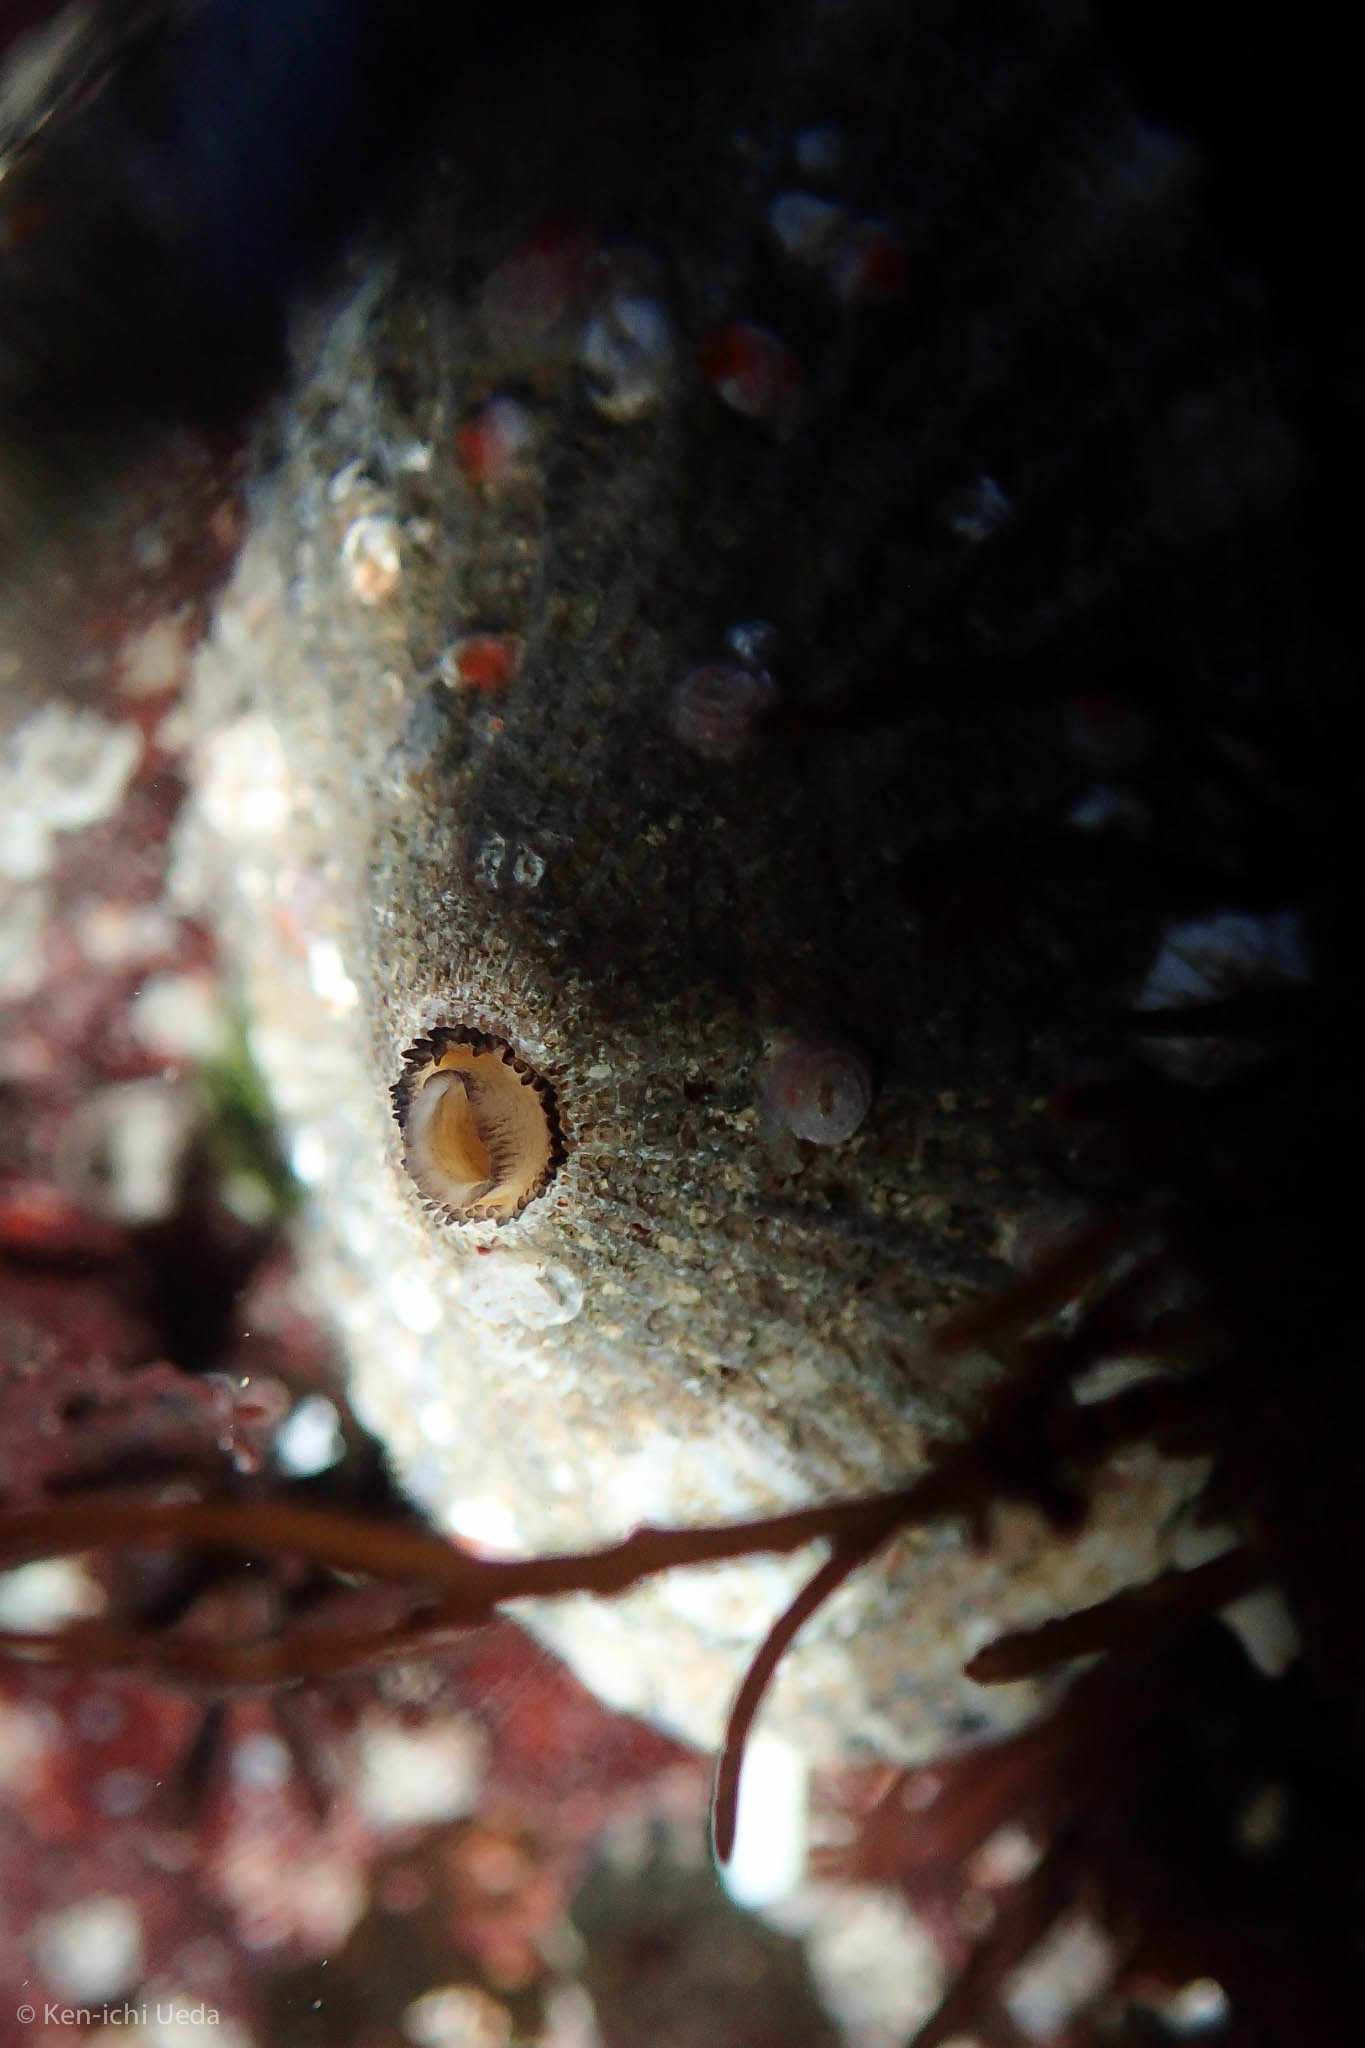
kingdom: Animalia
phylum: Mollusca
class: Gastropoda
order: Lepetellida
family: Fissurellidae
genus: Diodora
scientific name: Diodora aspera
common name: Rough keyhole limpet
